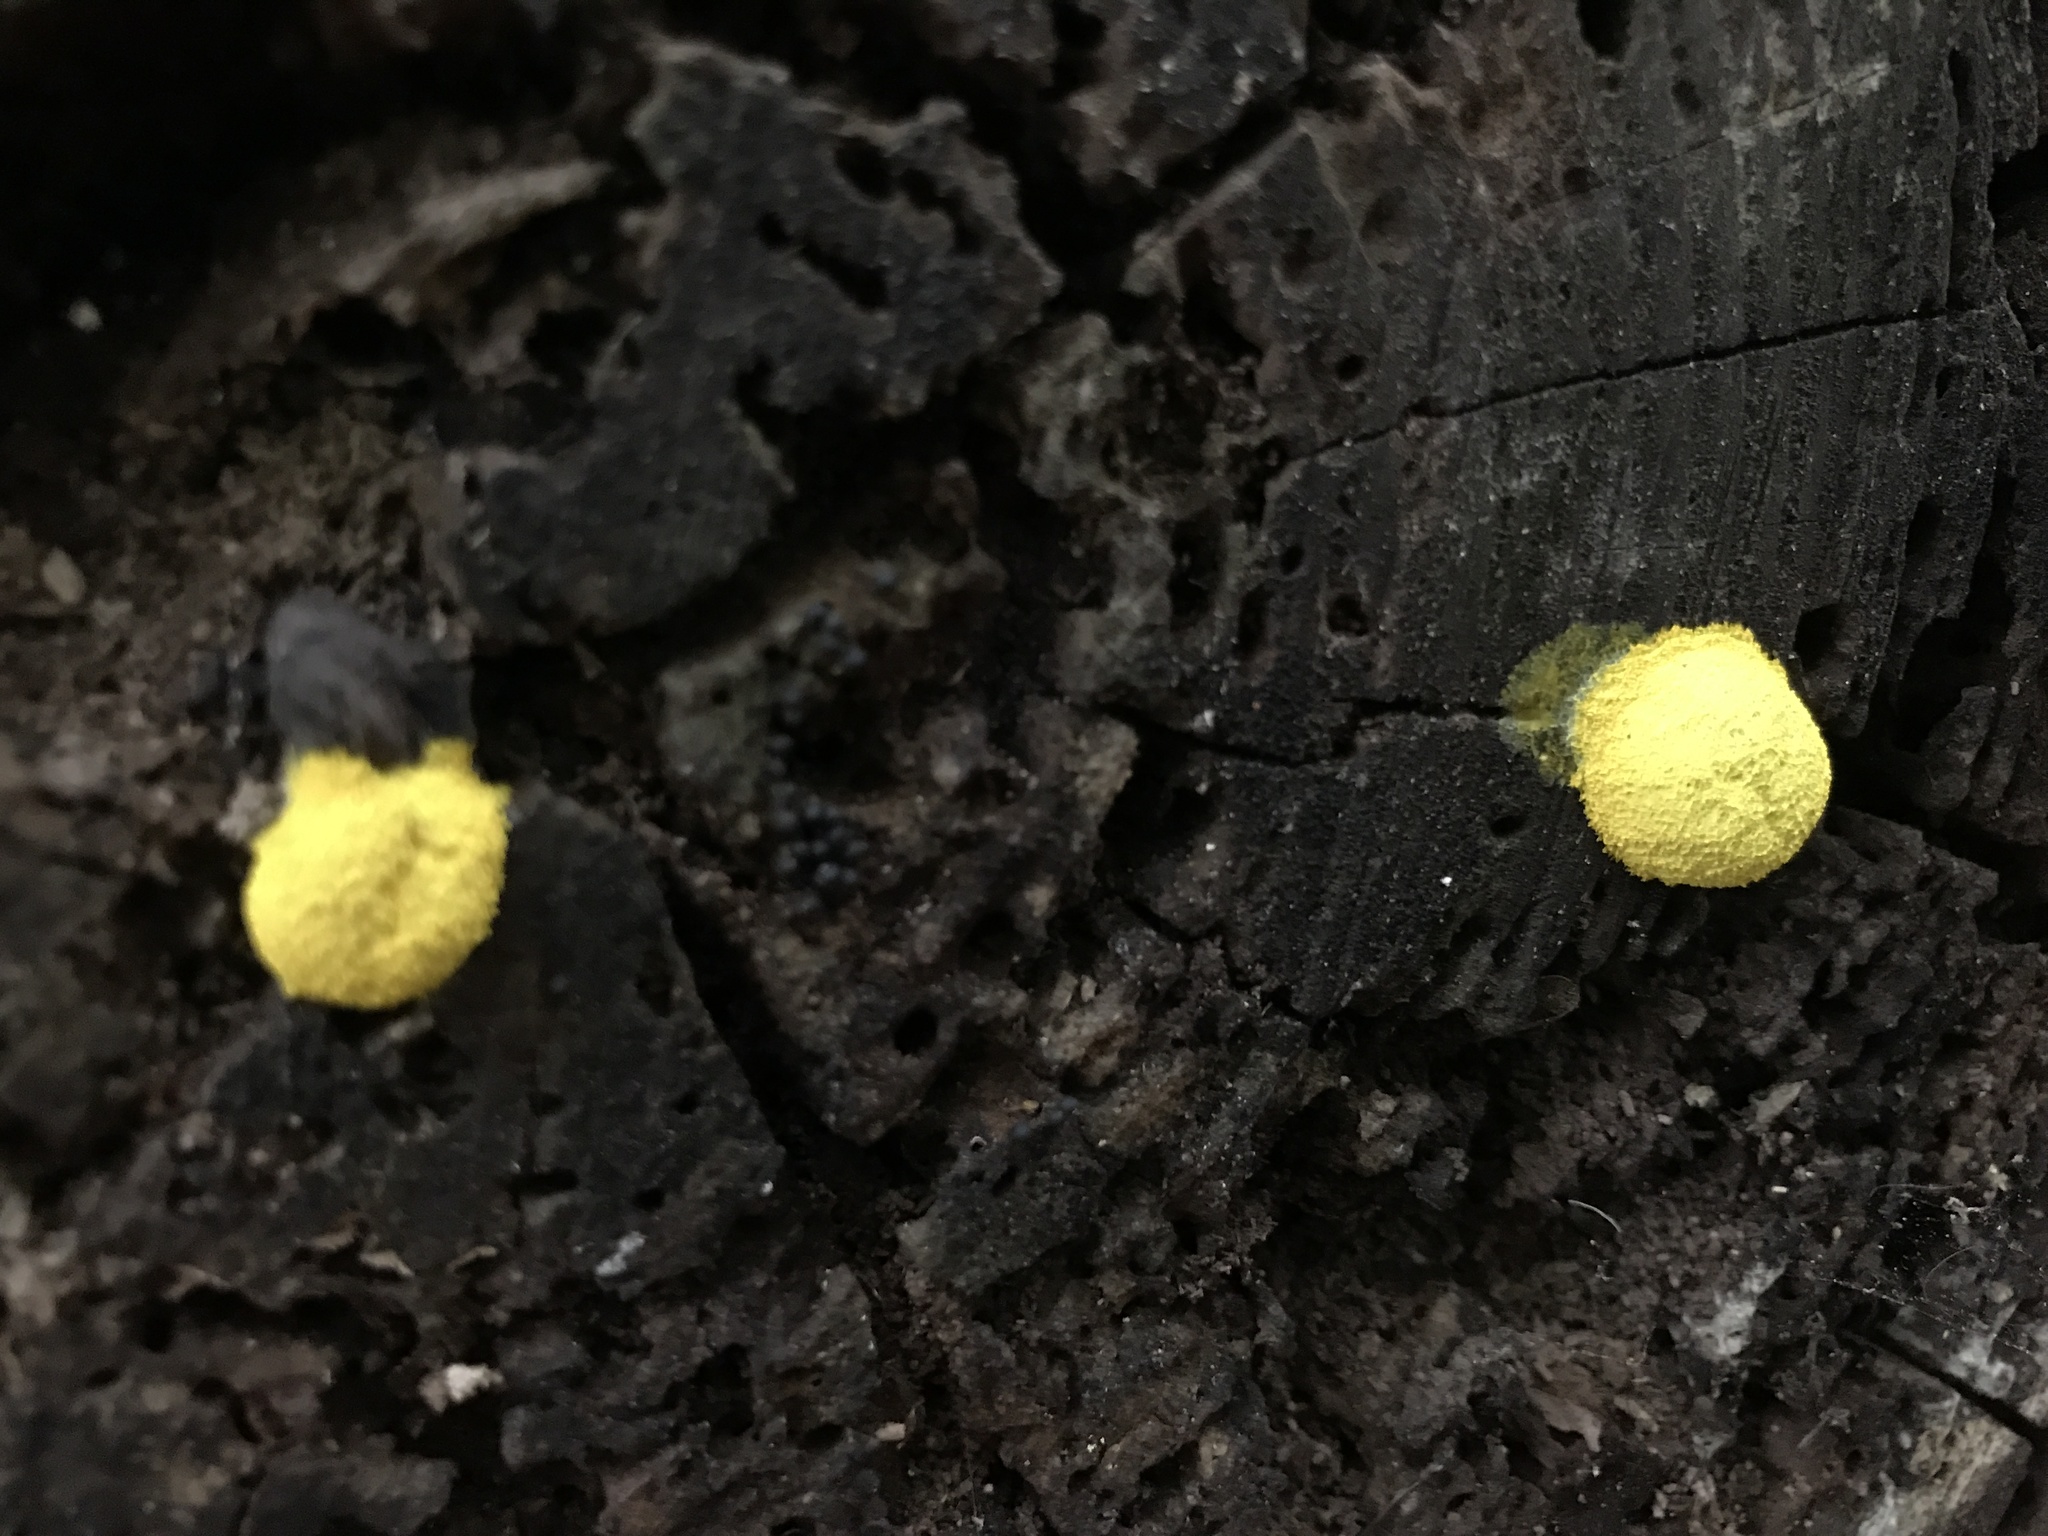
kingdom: Protozoa
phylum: Mycetozoa
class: Myxomycetes
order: Physarales
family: Physaraceae
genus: Fuligo
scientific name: Fuligo septica
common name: Dog vomit slime mold
